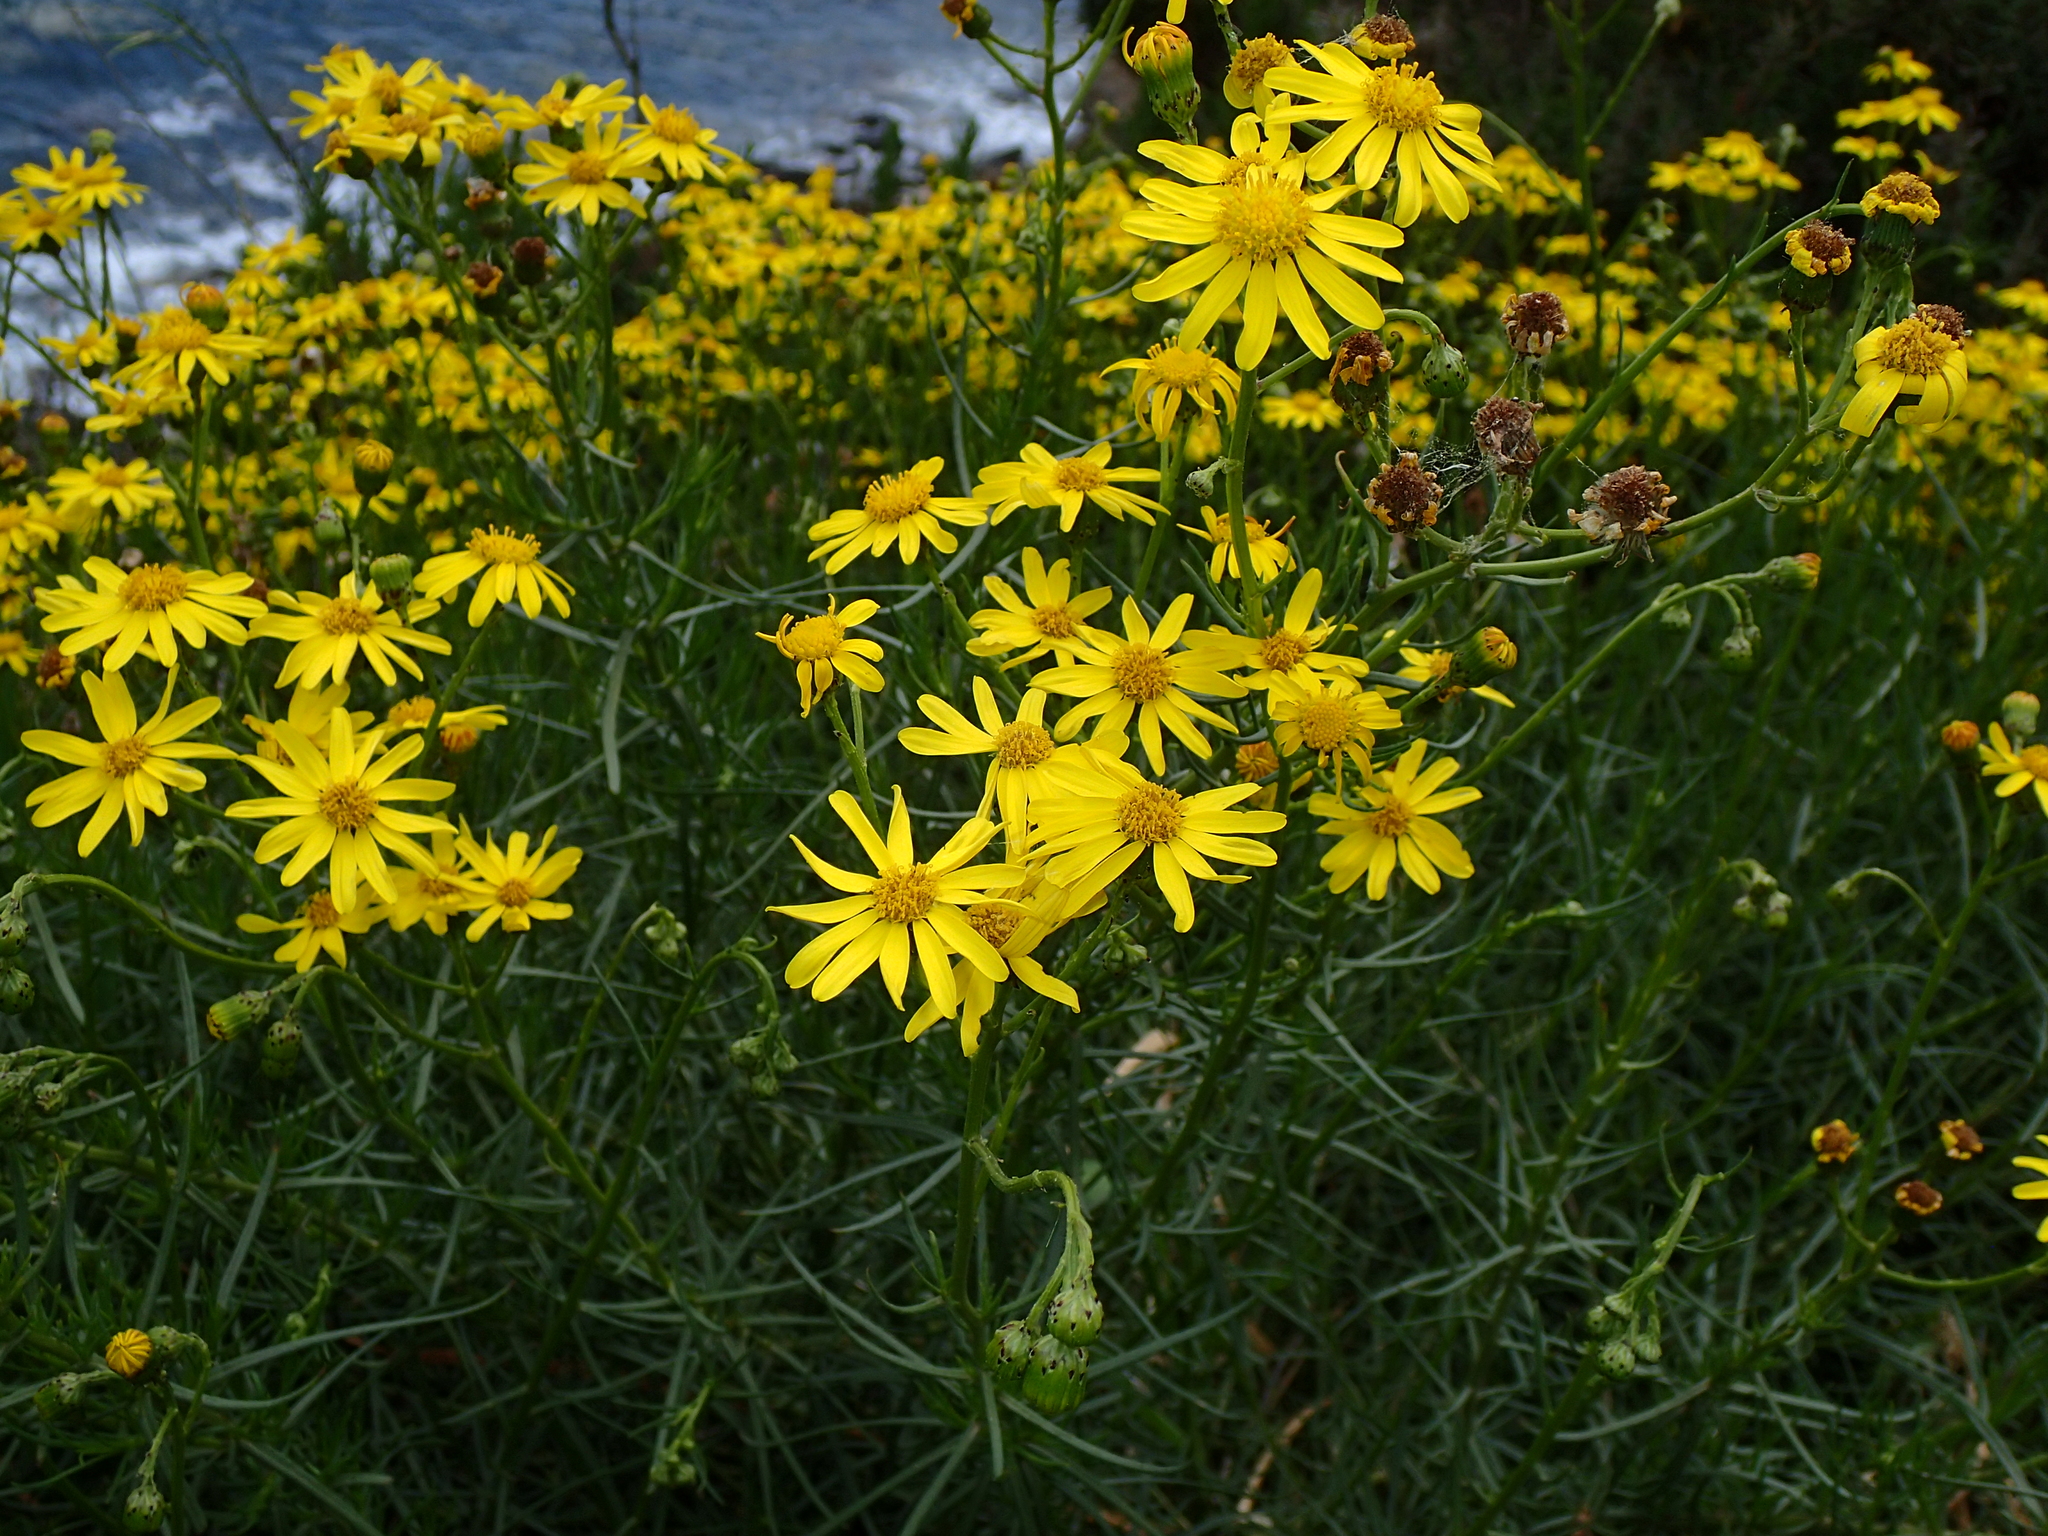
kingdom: Plantae
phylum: Tracheophyta
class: Magnoliopsida
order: Asterales
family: Asteraceae
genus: Senecio
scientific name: Senecio inaequidens
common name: Narrow-leaved ragwort
